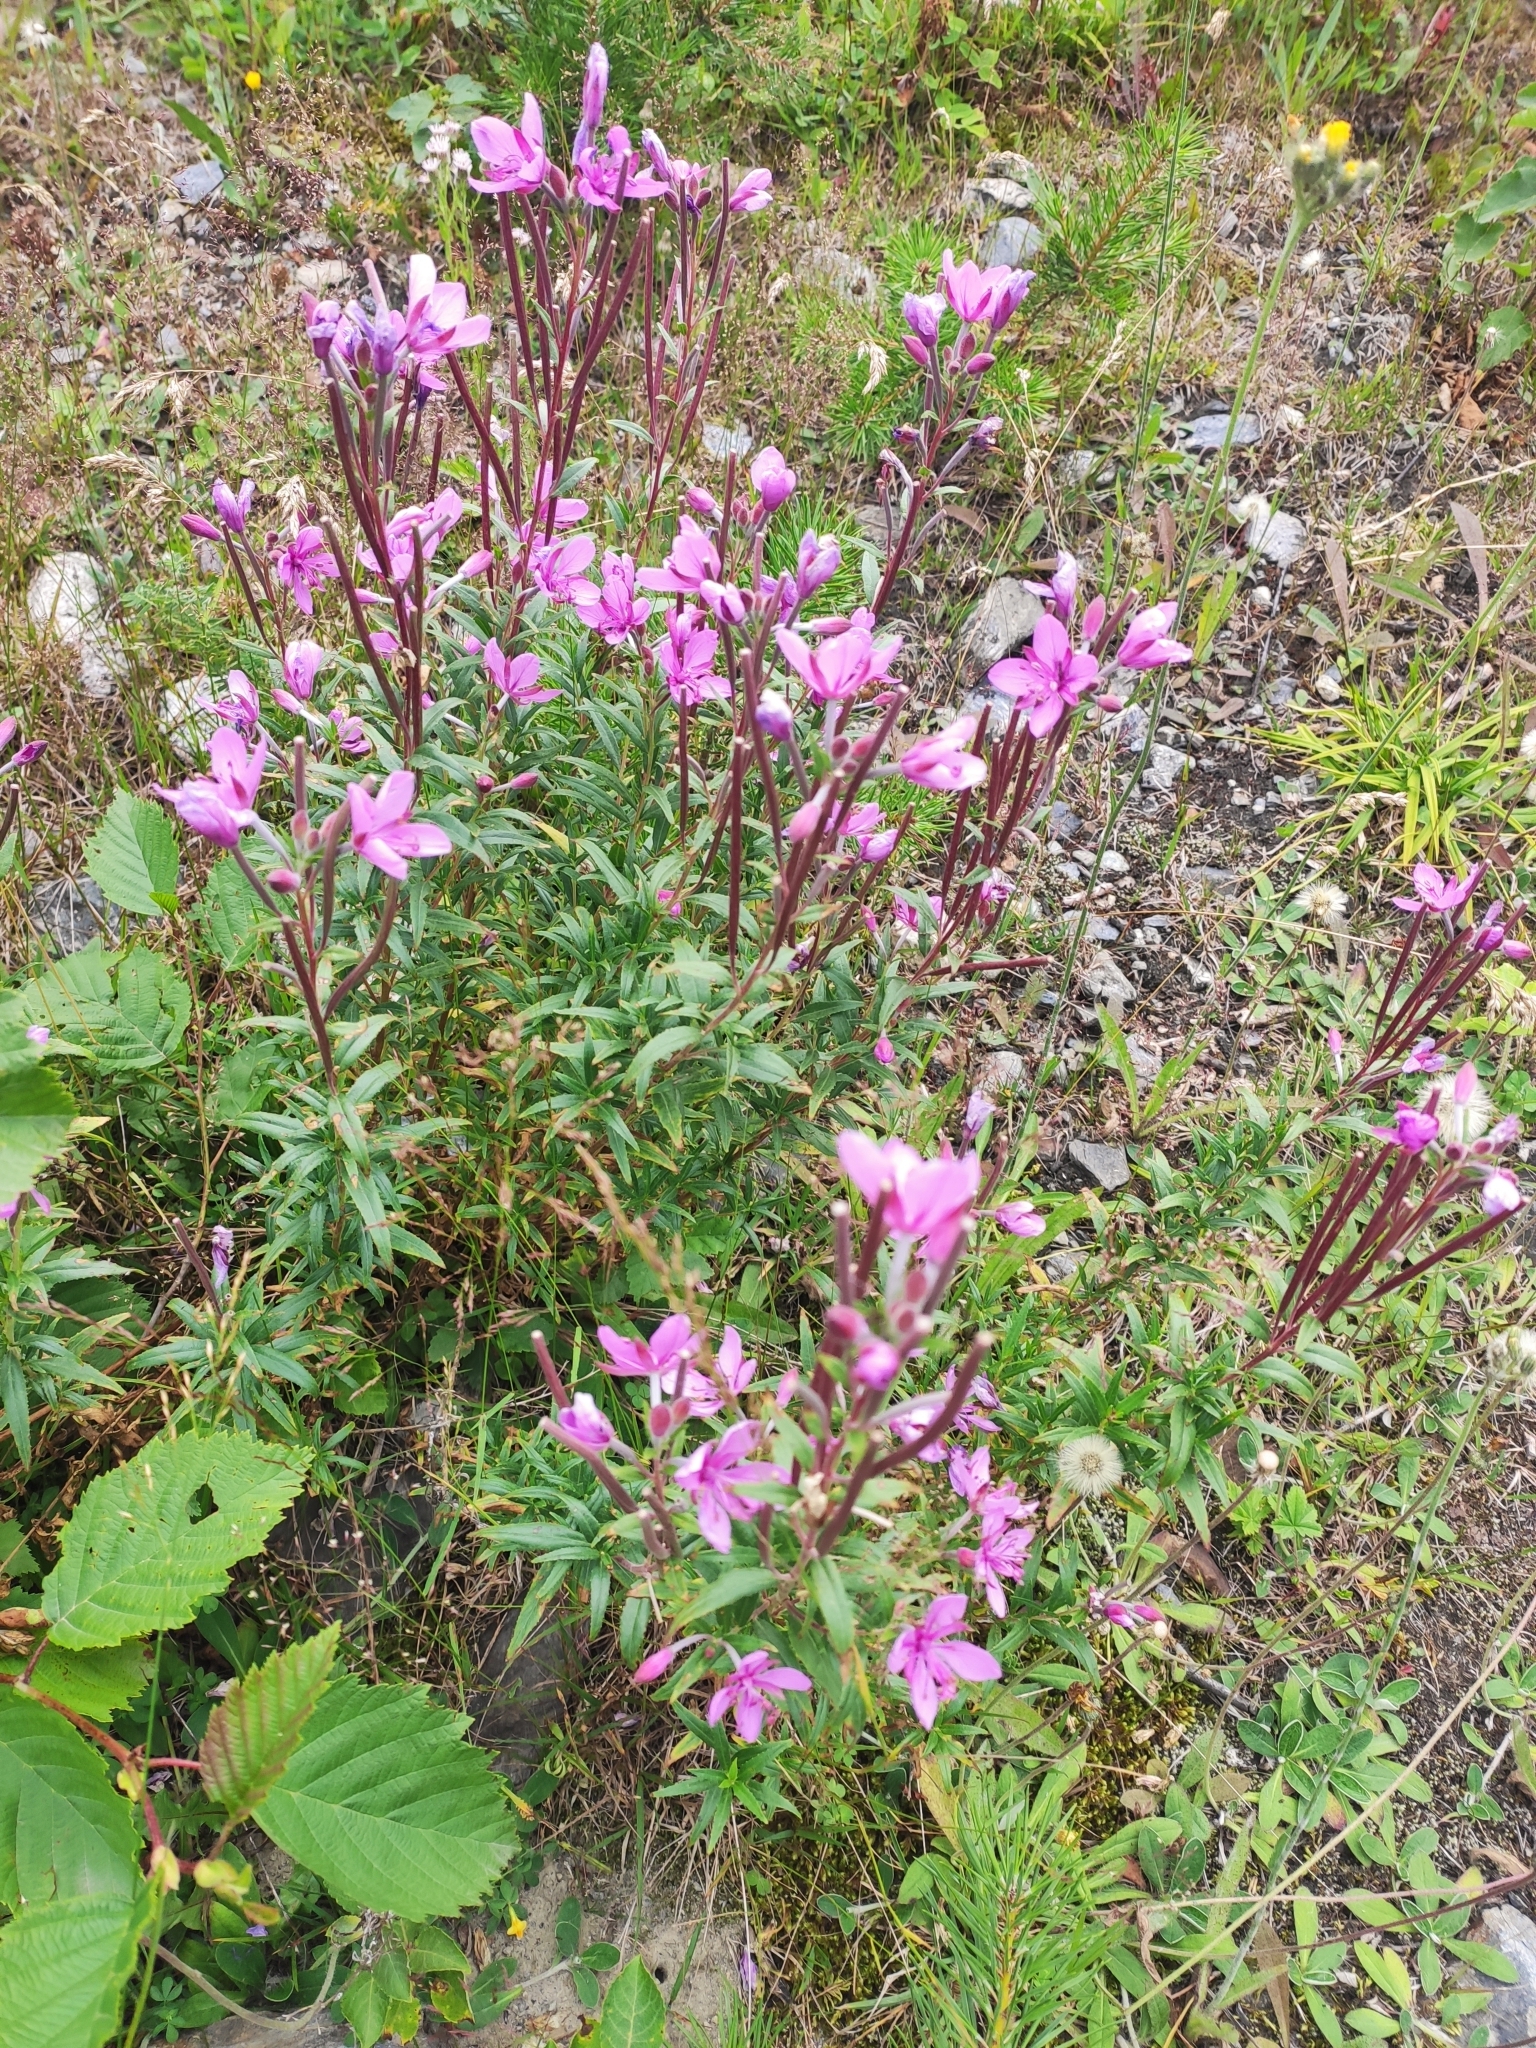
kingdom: Plantae
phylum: Tracheophyta
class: Magnoliopsida
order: Myrtales
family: Onagraceae
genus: Chamaenerion
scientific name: Chamaenerion colchicum
